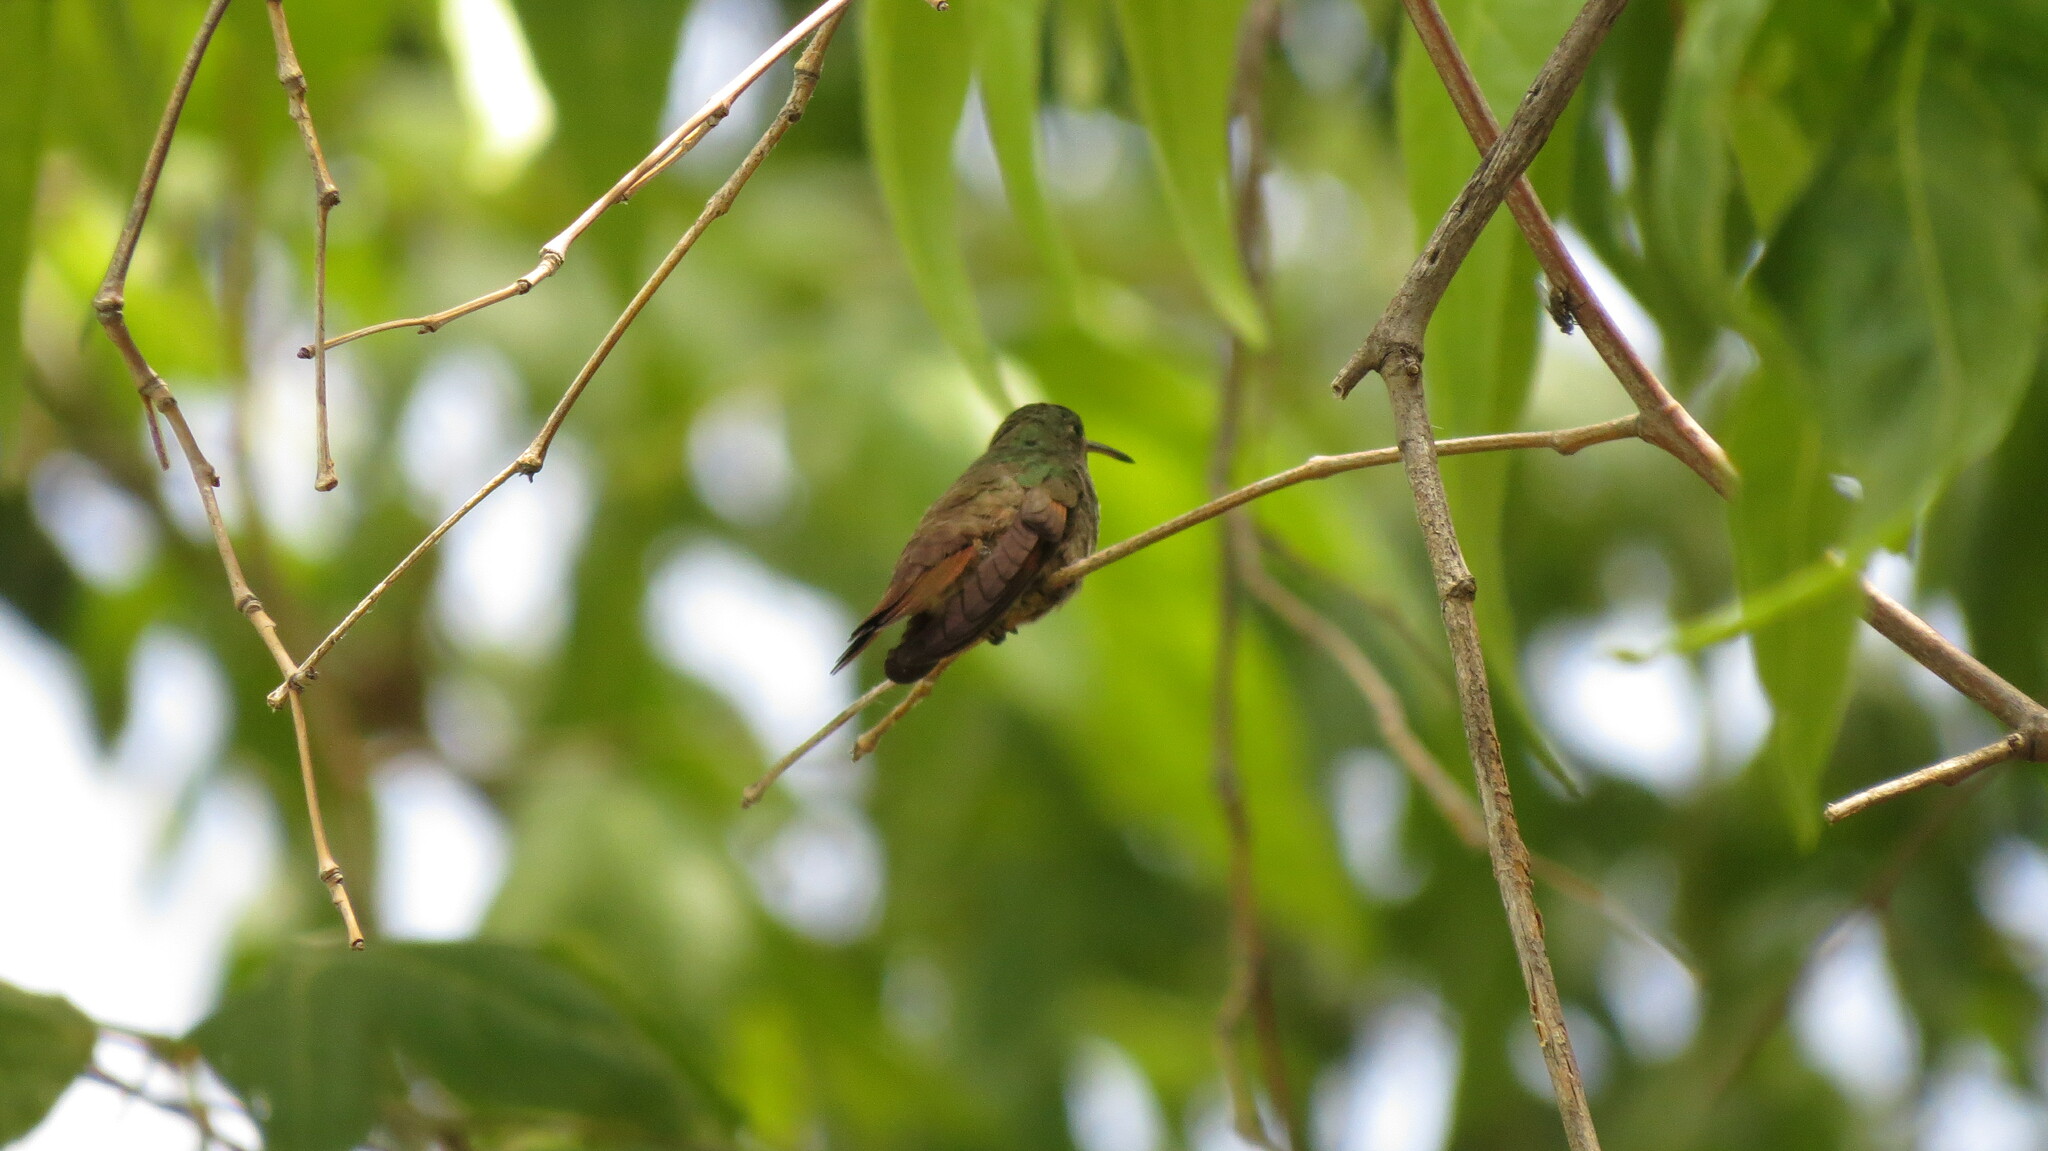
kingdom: Animalia
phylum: Chordata
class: Aves
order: Apodiformes
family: Trochilidae
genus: Saucerottia
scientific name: Saucerottia beryllina
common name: Berylline hummingbird
